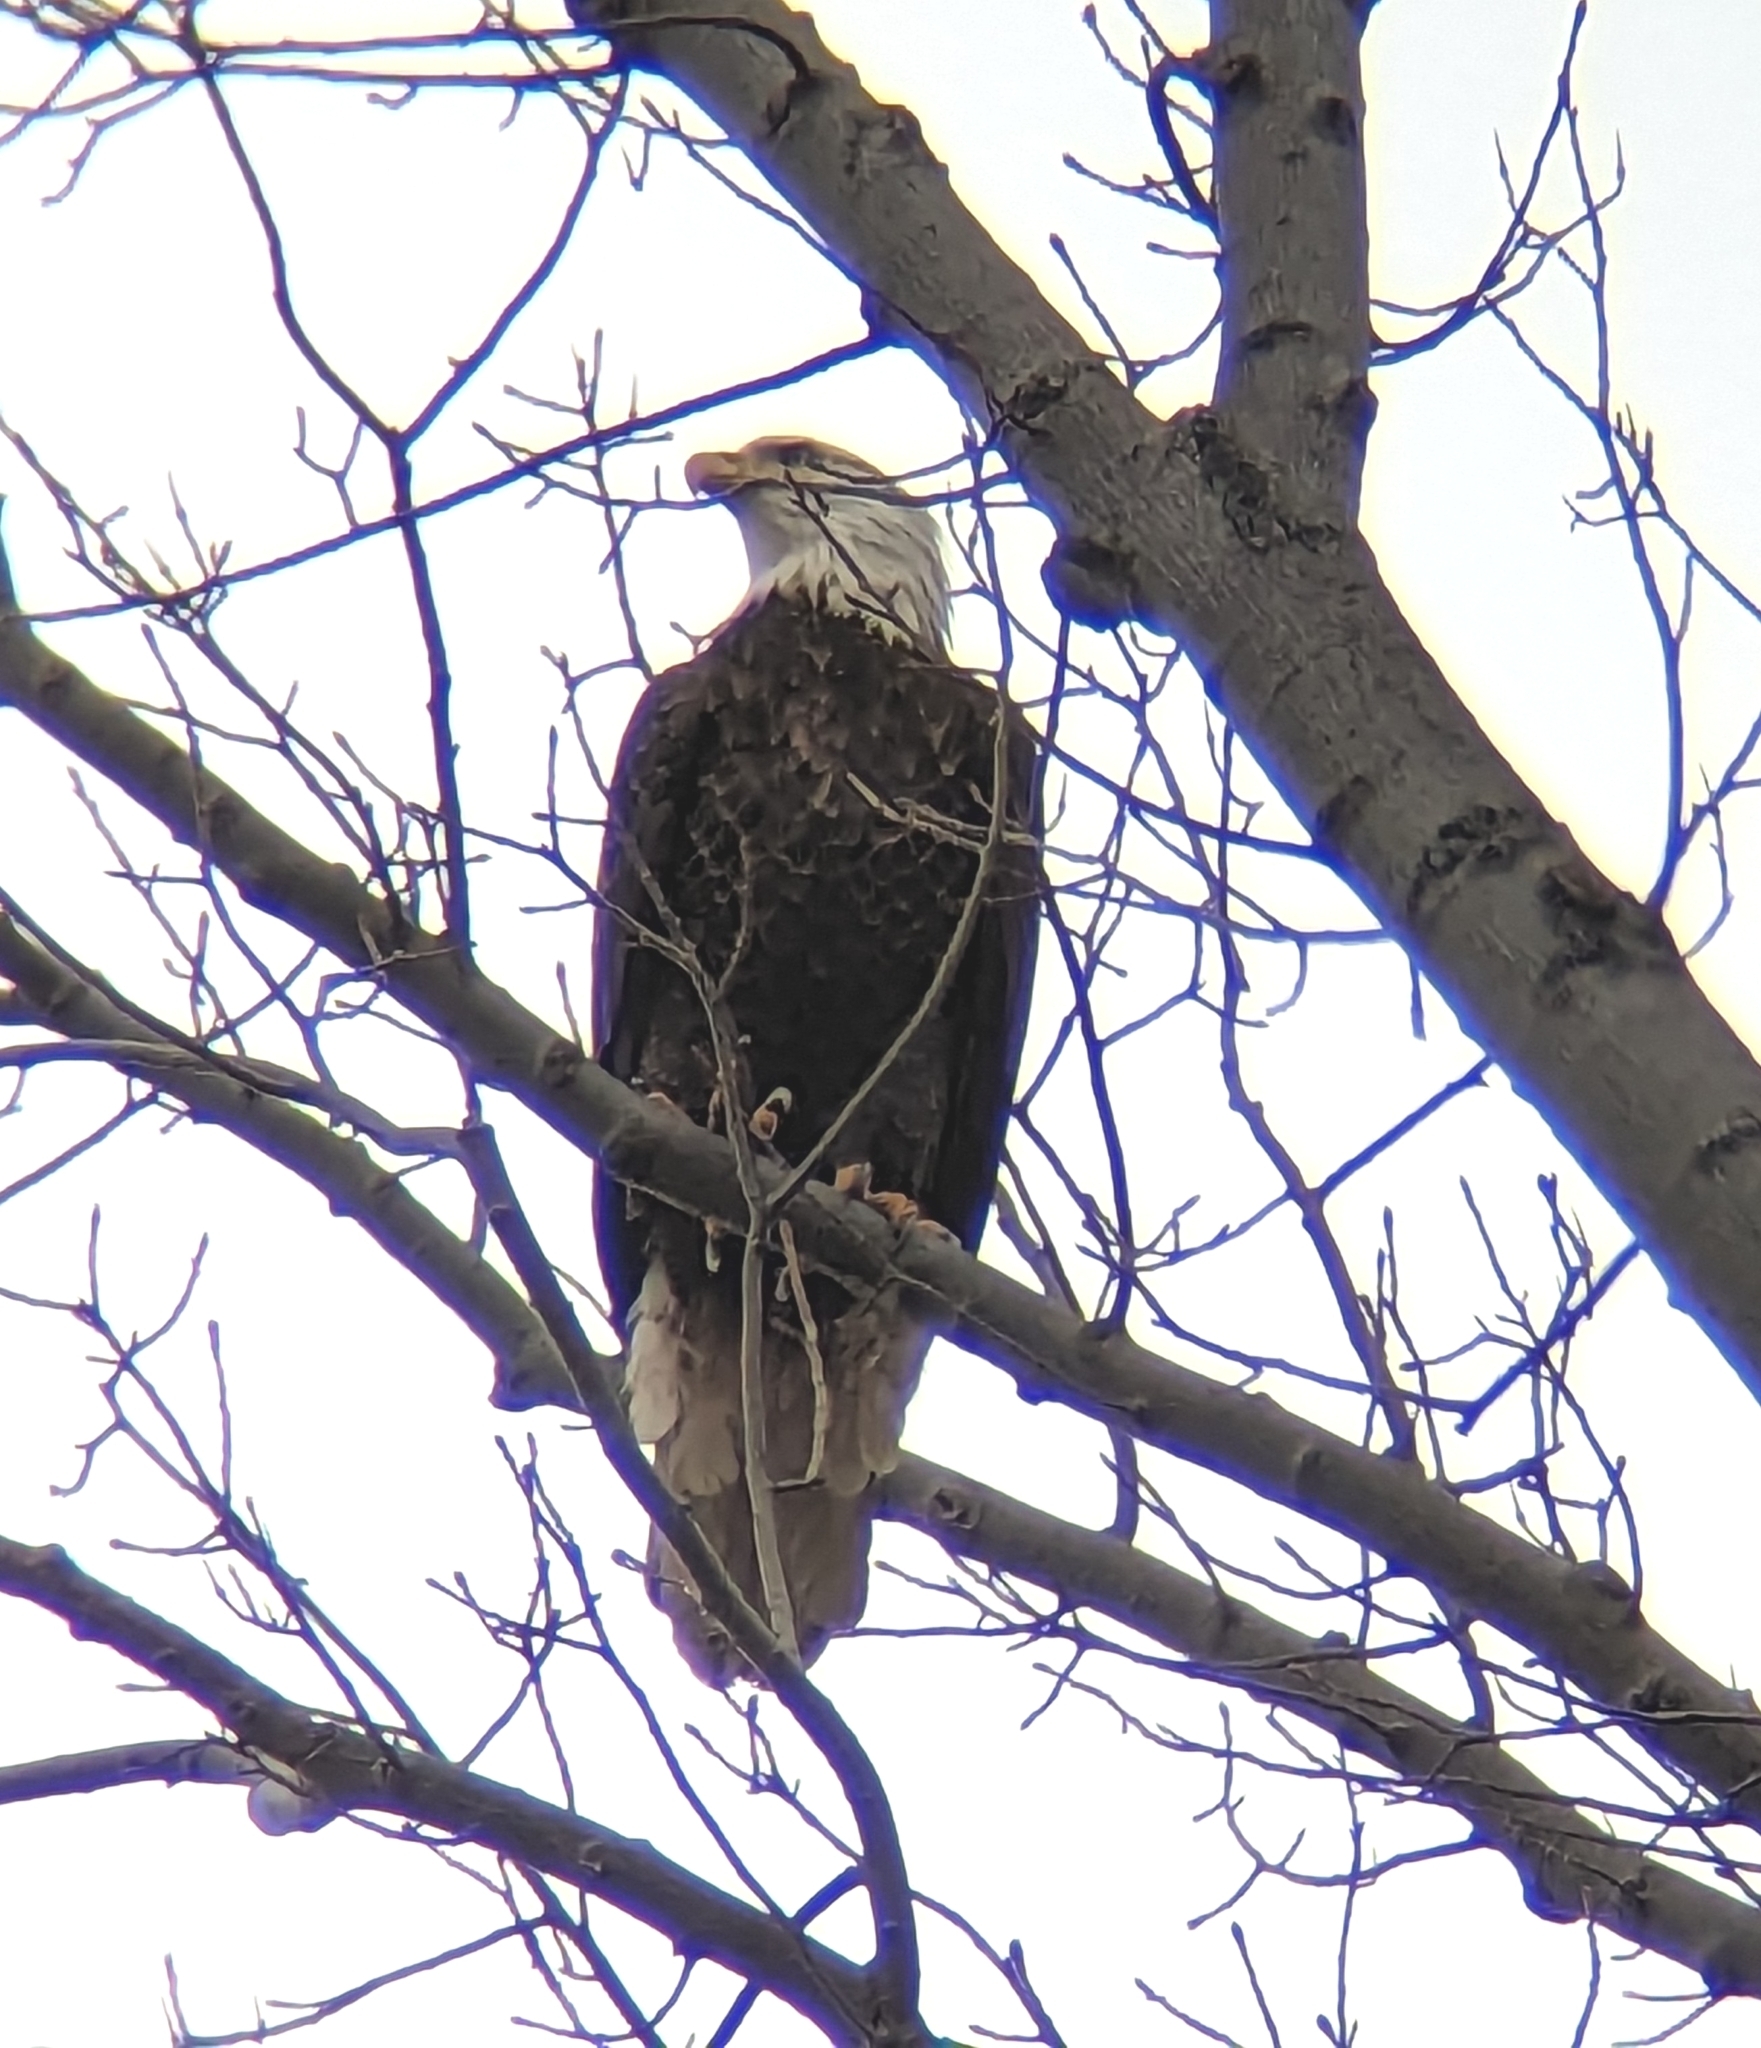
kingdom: Animalia
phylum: Chordata
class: Aves
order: Accipitriformes
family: Accipitridae
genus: Haliaeetus
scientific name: Haliaeetus leucocephalus
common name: Bald eagle
